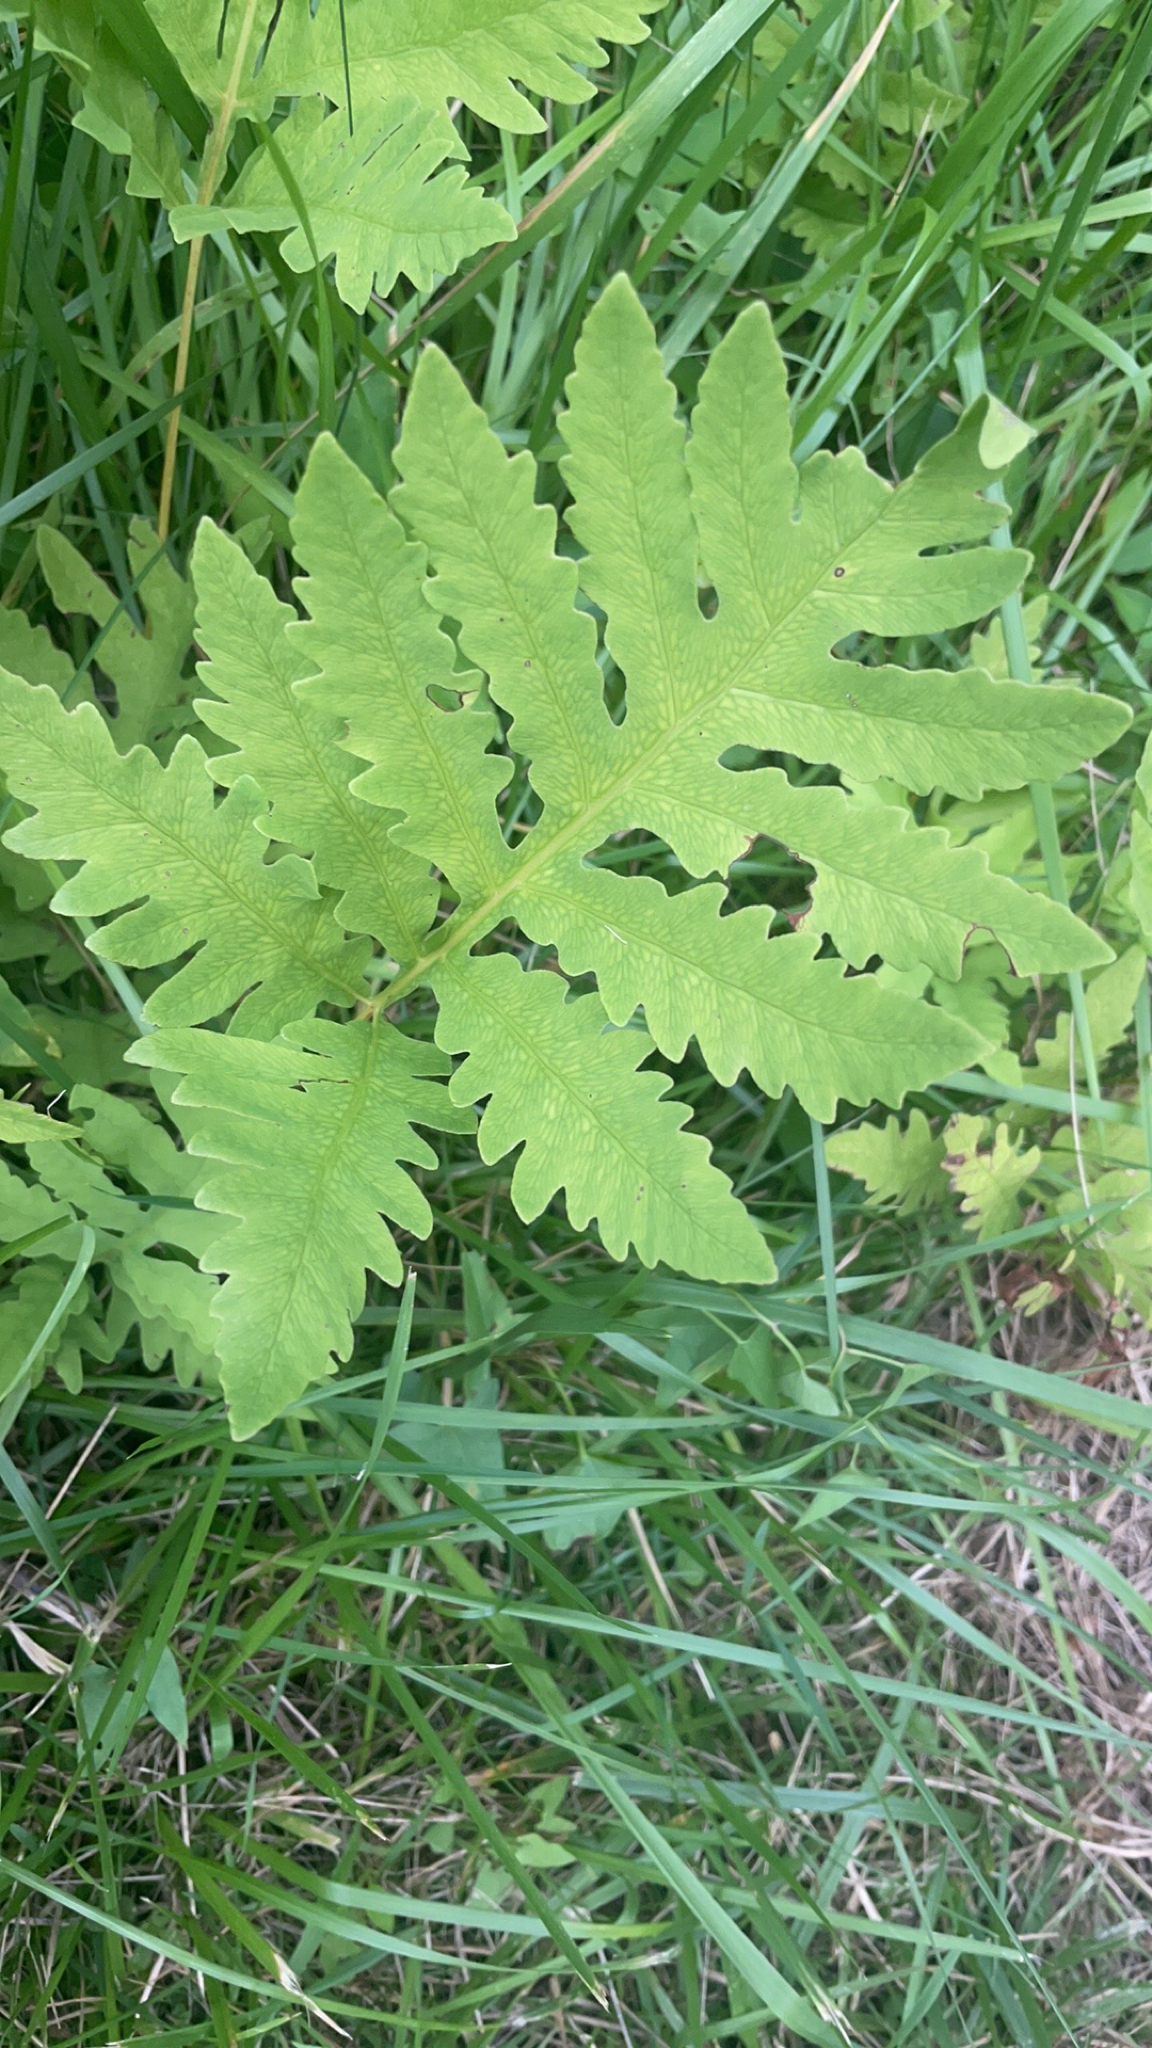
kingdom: Plantae
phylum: Tracheophyta
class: Polypodiopsida
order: Polypodiales
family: Onocleaceae
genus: Onoclea
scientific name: Onoclea sensibilis
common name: Sensitive fern
